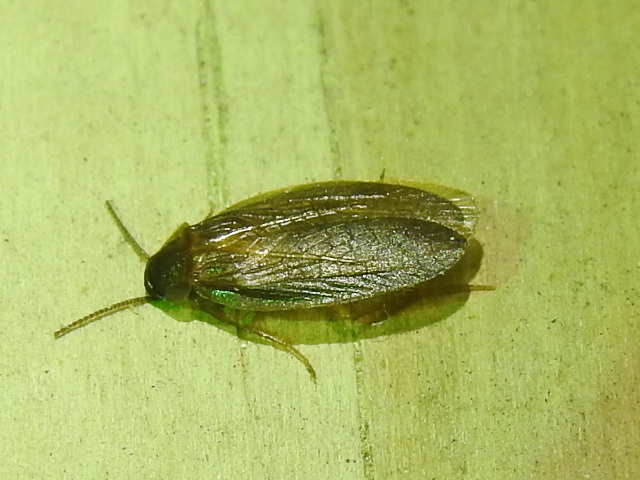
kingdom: Animalia
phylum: Arthropoda
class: Insecta
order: Blattodea
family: Corydiidae
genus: Compsodes
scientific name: Compsodes schwarzi
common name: Schwarz's hooded cockroach
